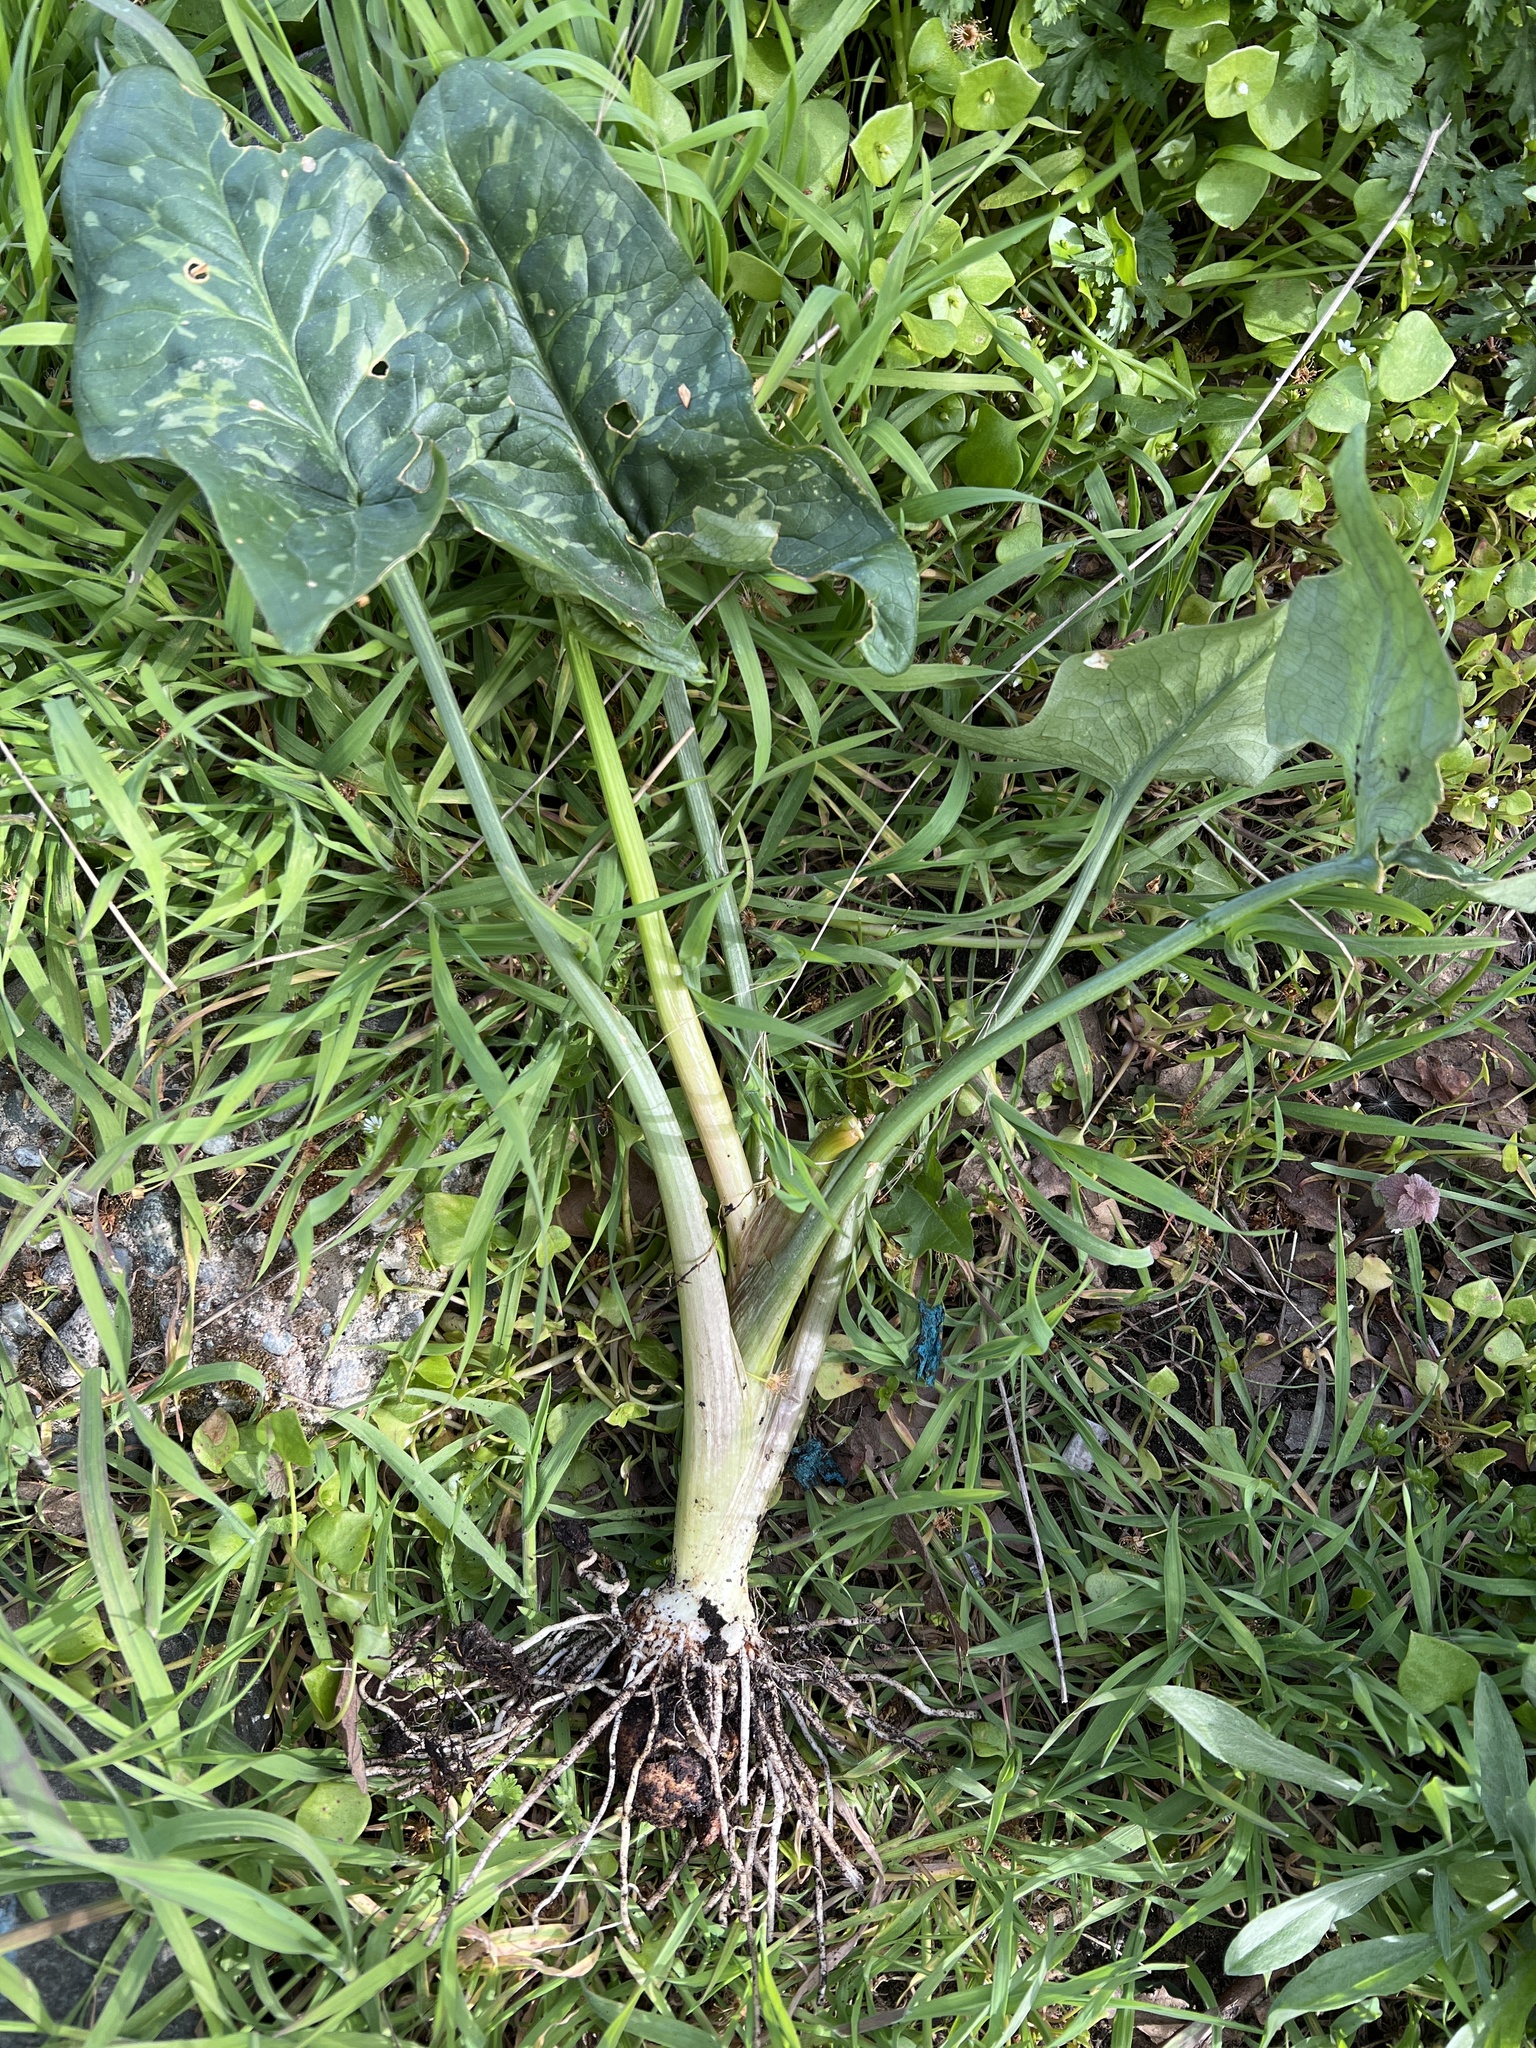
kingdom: Plantae
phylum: Tracheophyta
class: Liliopsida
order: Alismatales
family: Araceae
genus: Arum
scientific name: Arum italicum
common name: Italian lords-and-ladies
